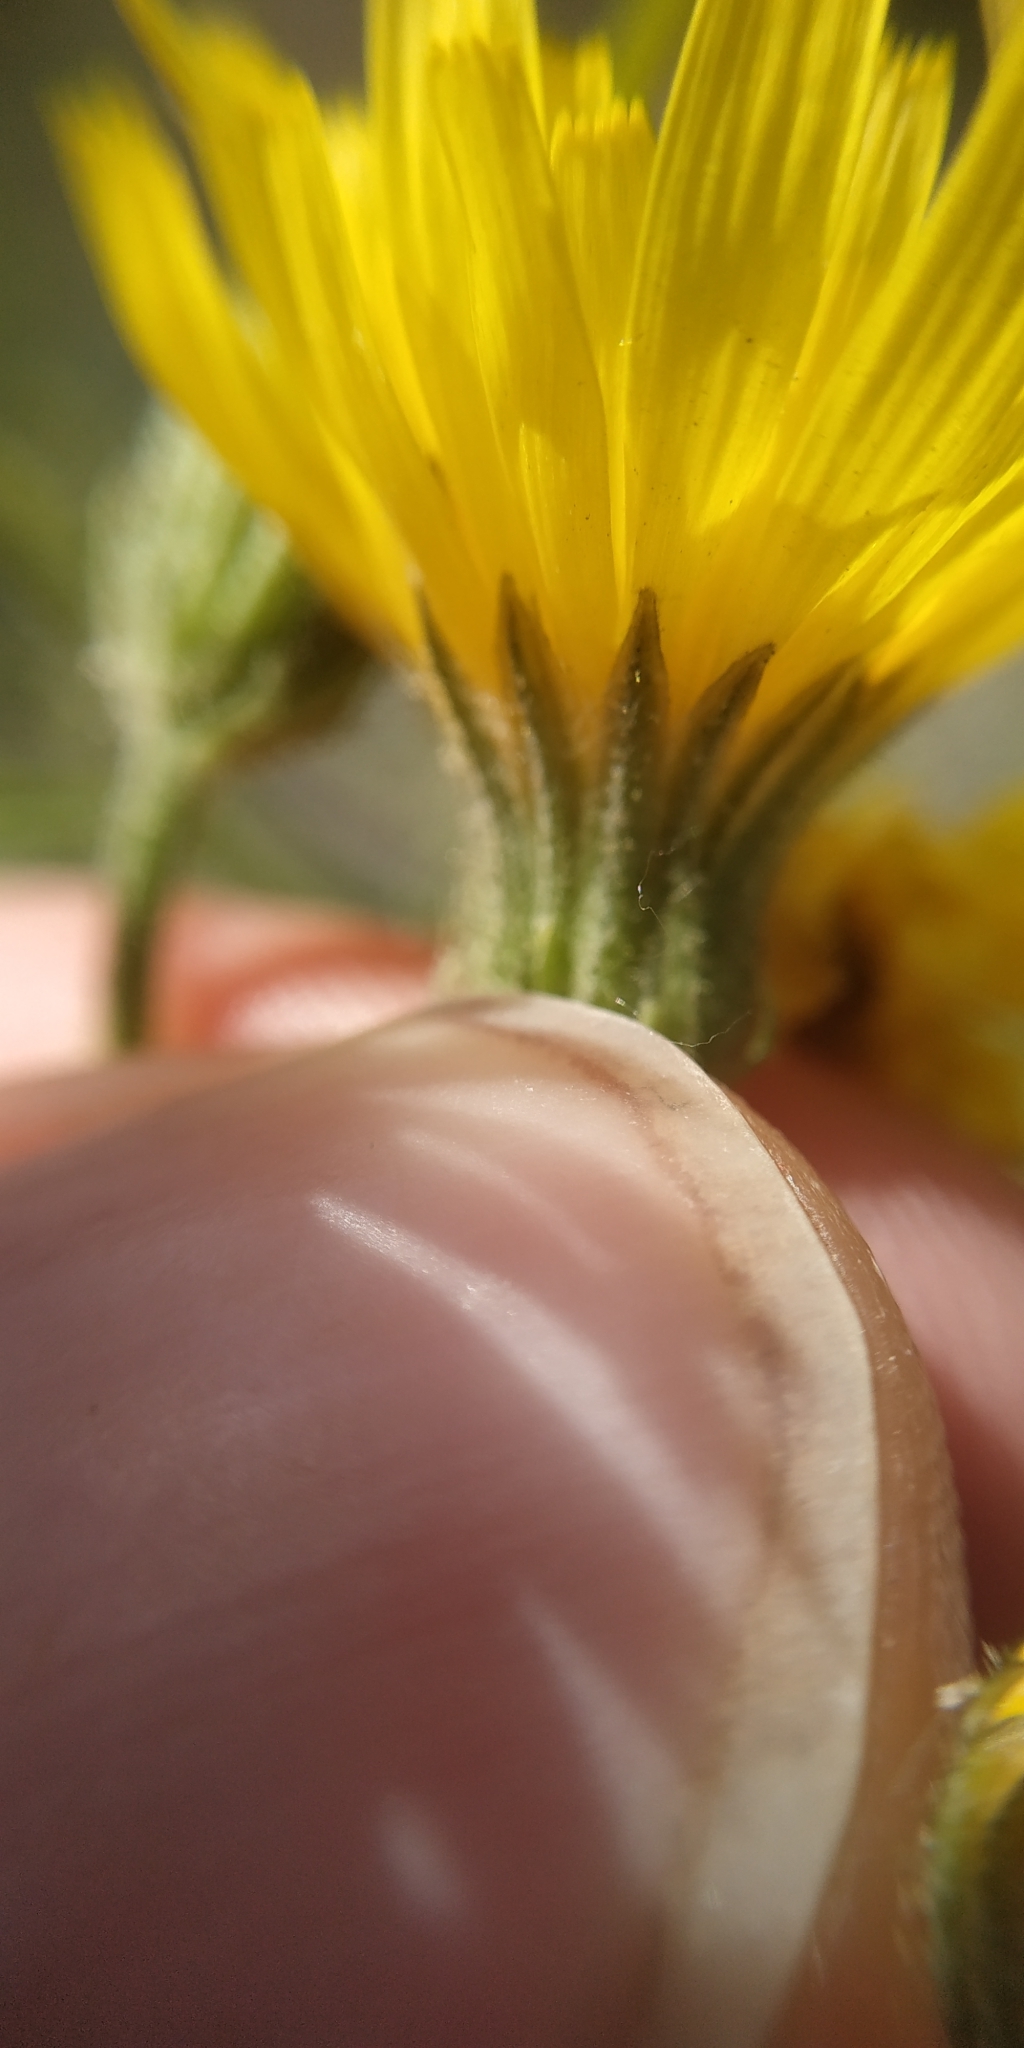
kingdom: Plantae
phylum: Tracheophyta
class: Magnoliopsida
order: Asterales
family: Asteraceae
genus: Crepis
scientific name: Crepis tectorum
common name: Narrow-leaved hawk's-beard
